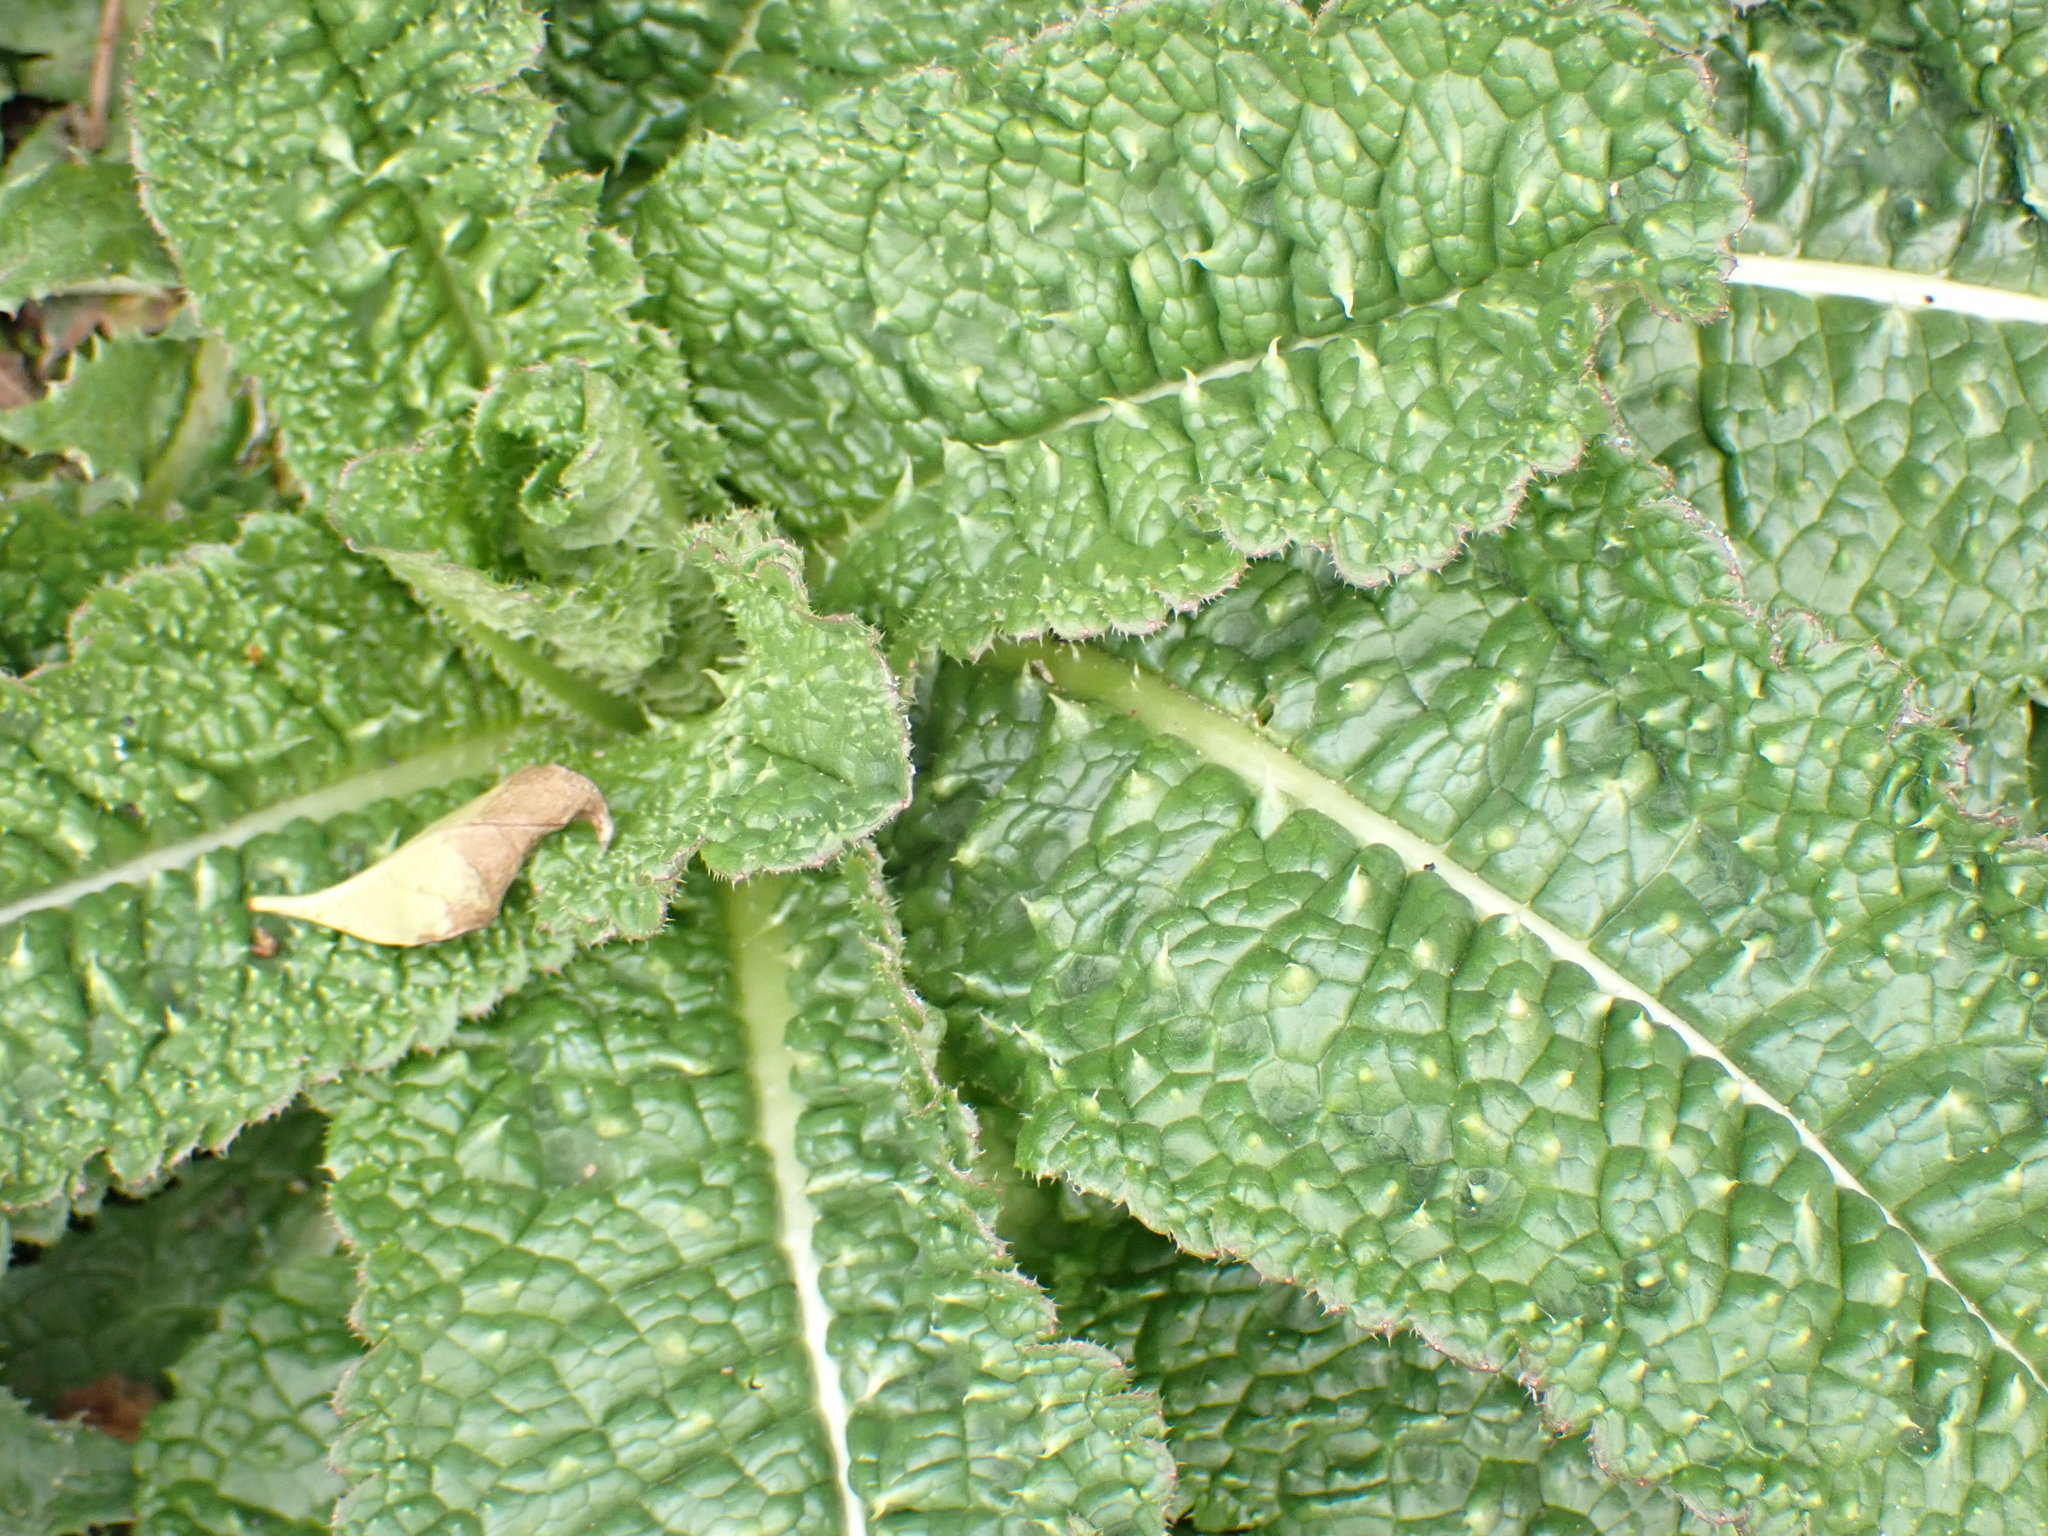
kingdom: Plantae
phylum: Tracheophyta
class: Magnoliopsida
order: Asterales
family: Asteraceae
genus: Helminthotheca
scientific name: Helminthotheca echioides
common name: Ox-tongue
